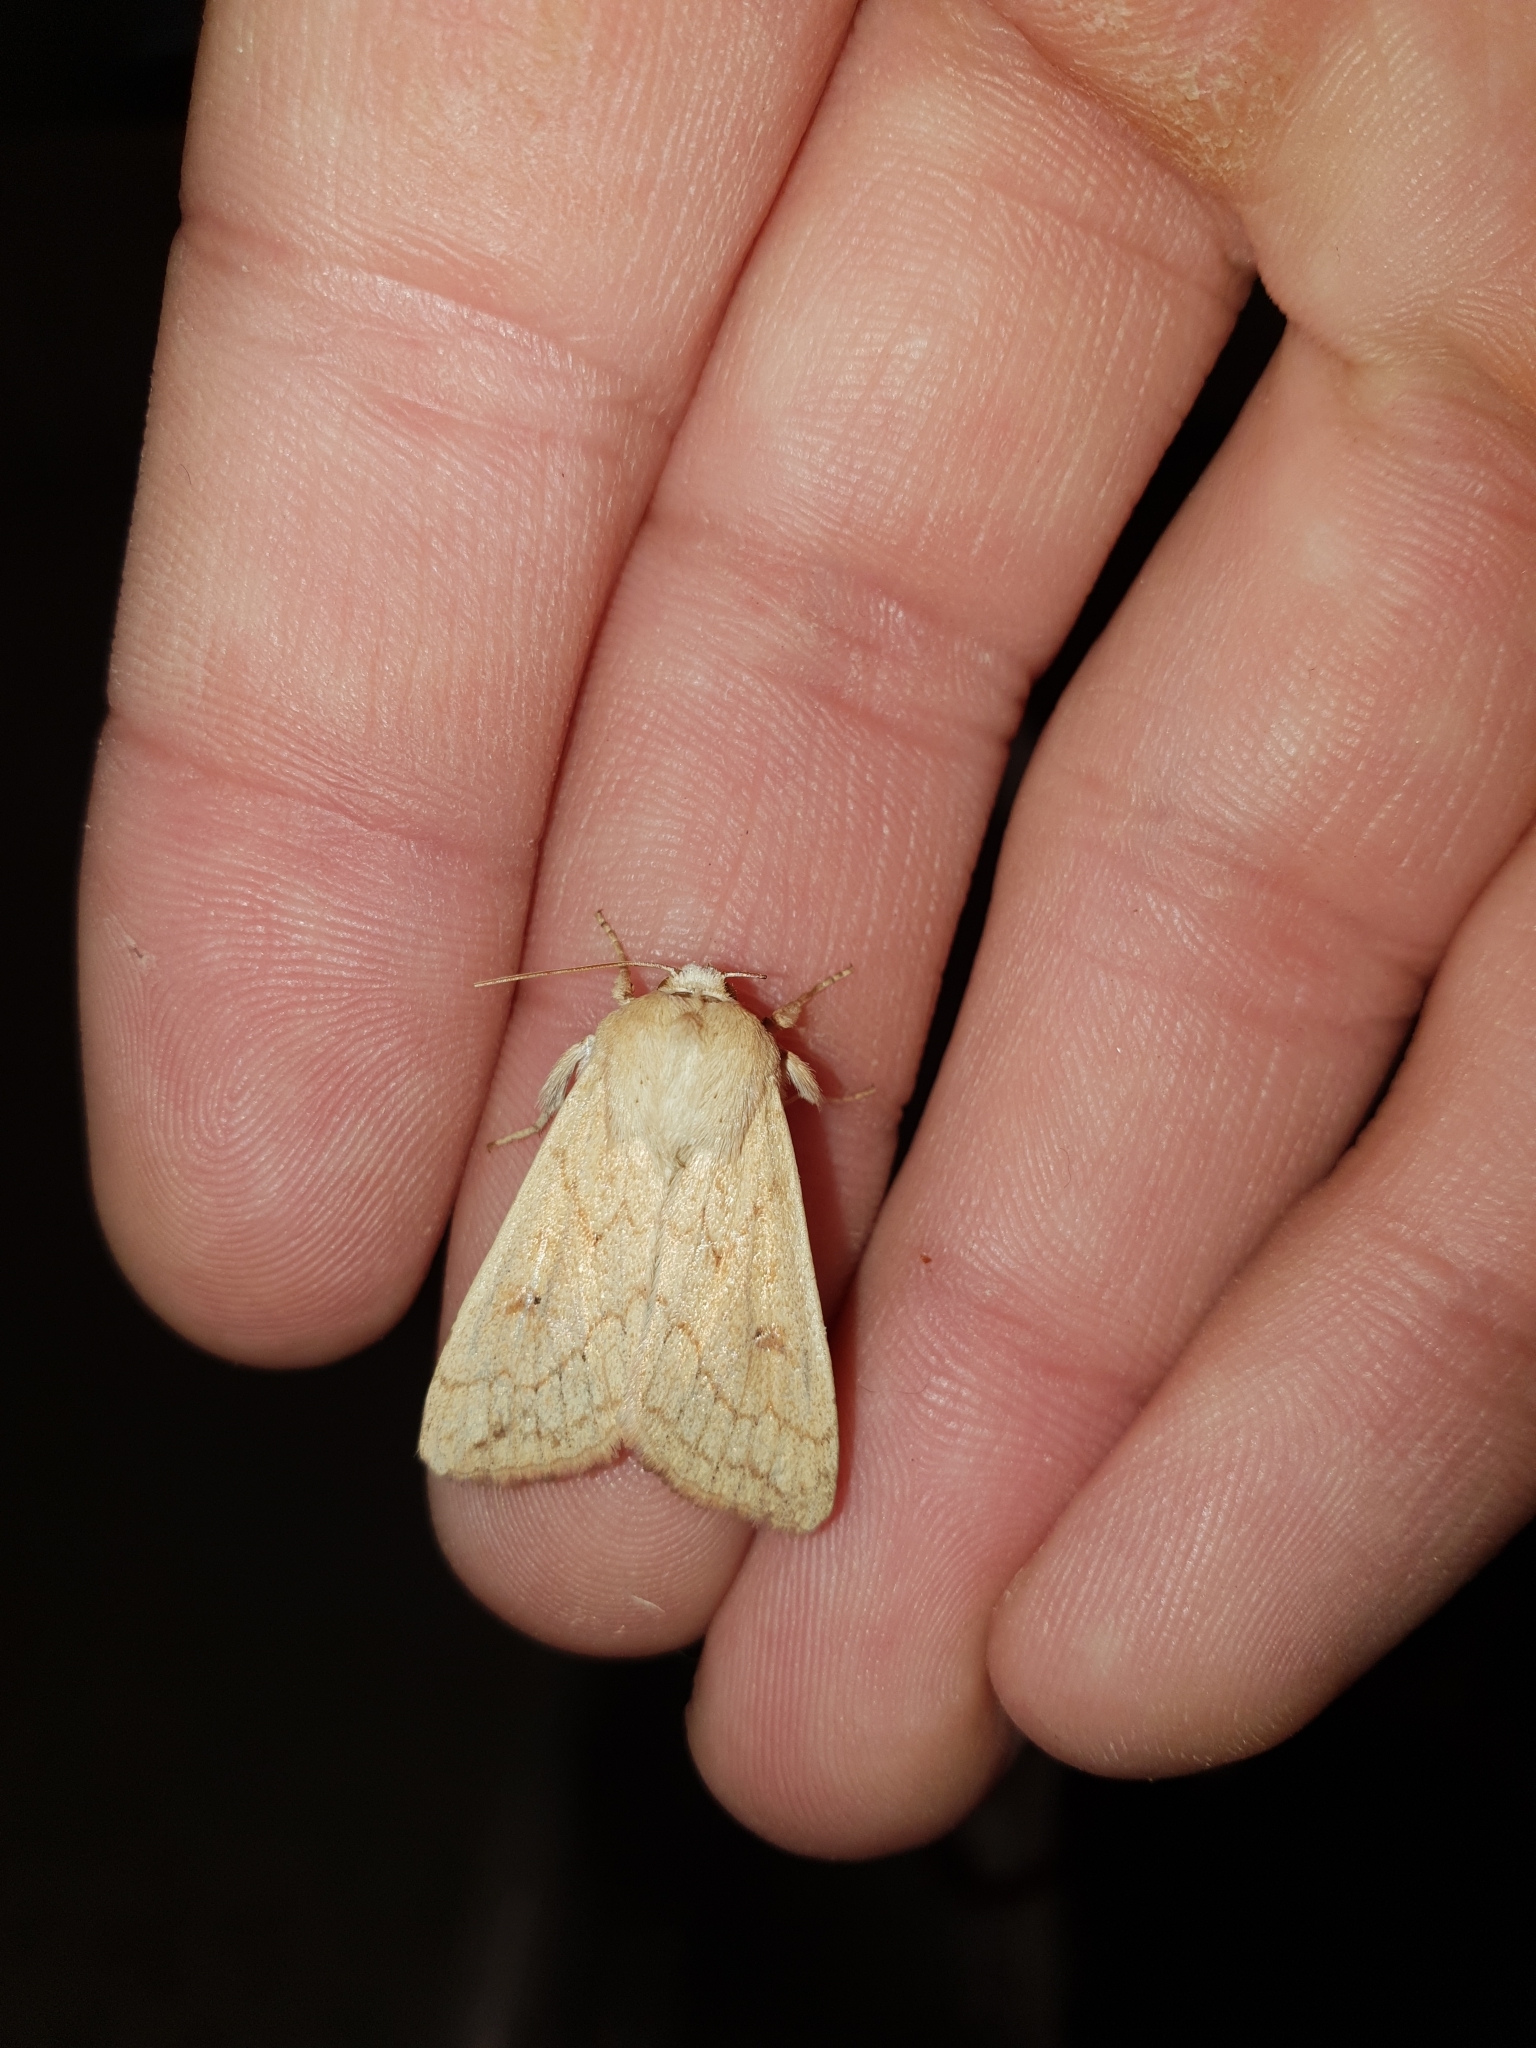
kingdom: Animalia
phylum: Arthropoda
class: Insecta
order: Lepidoptera
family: Noctuidae
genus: Mythimna
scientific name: Mythimna vitellina
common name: Delicate
